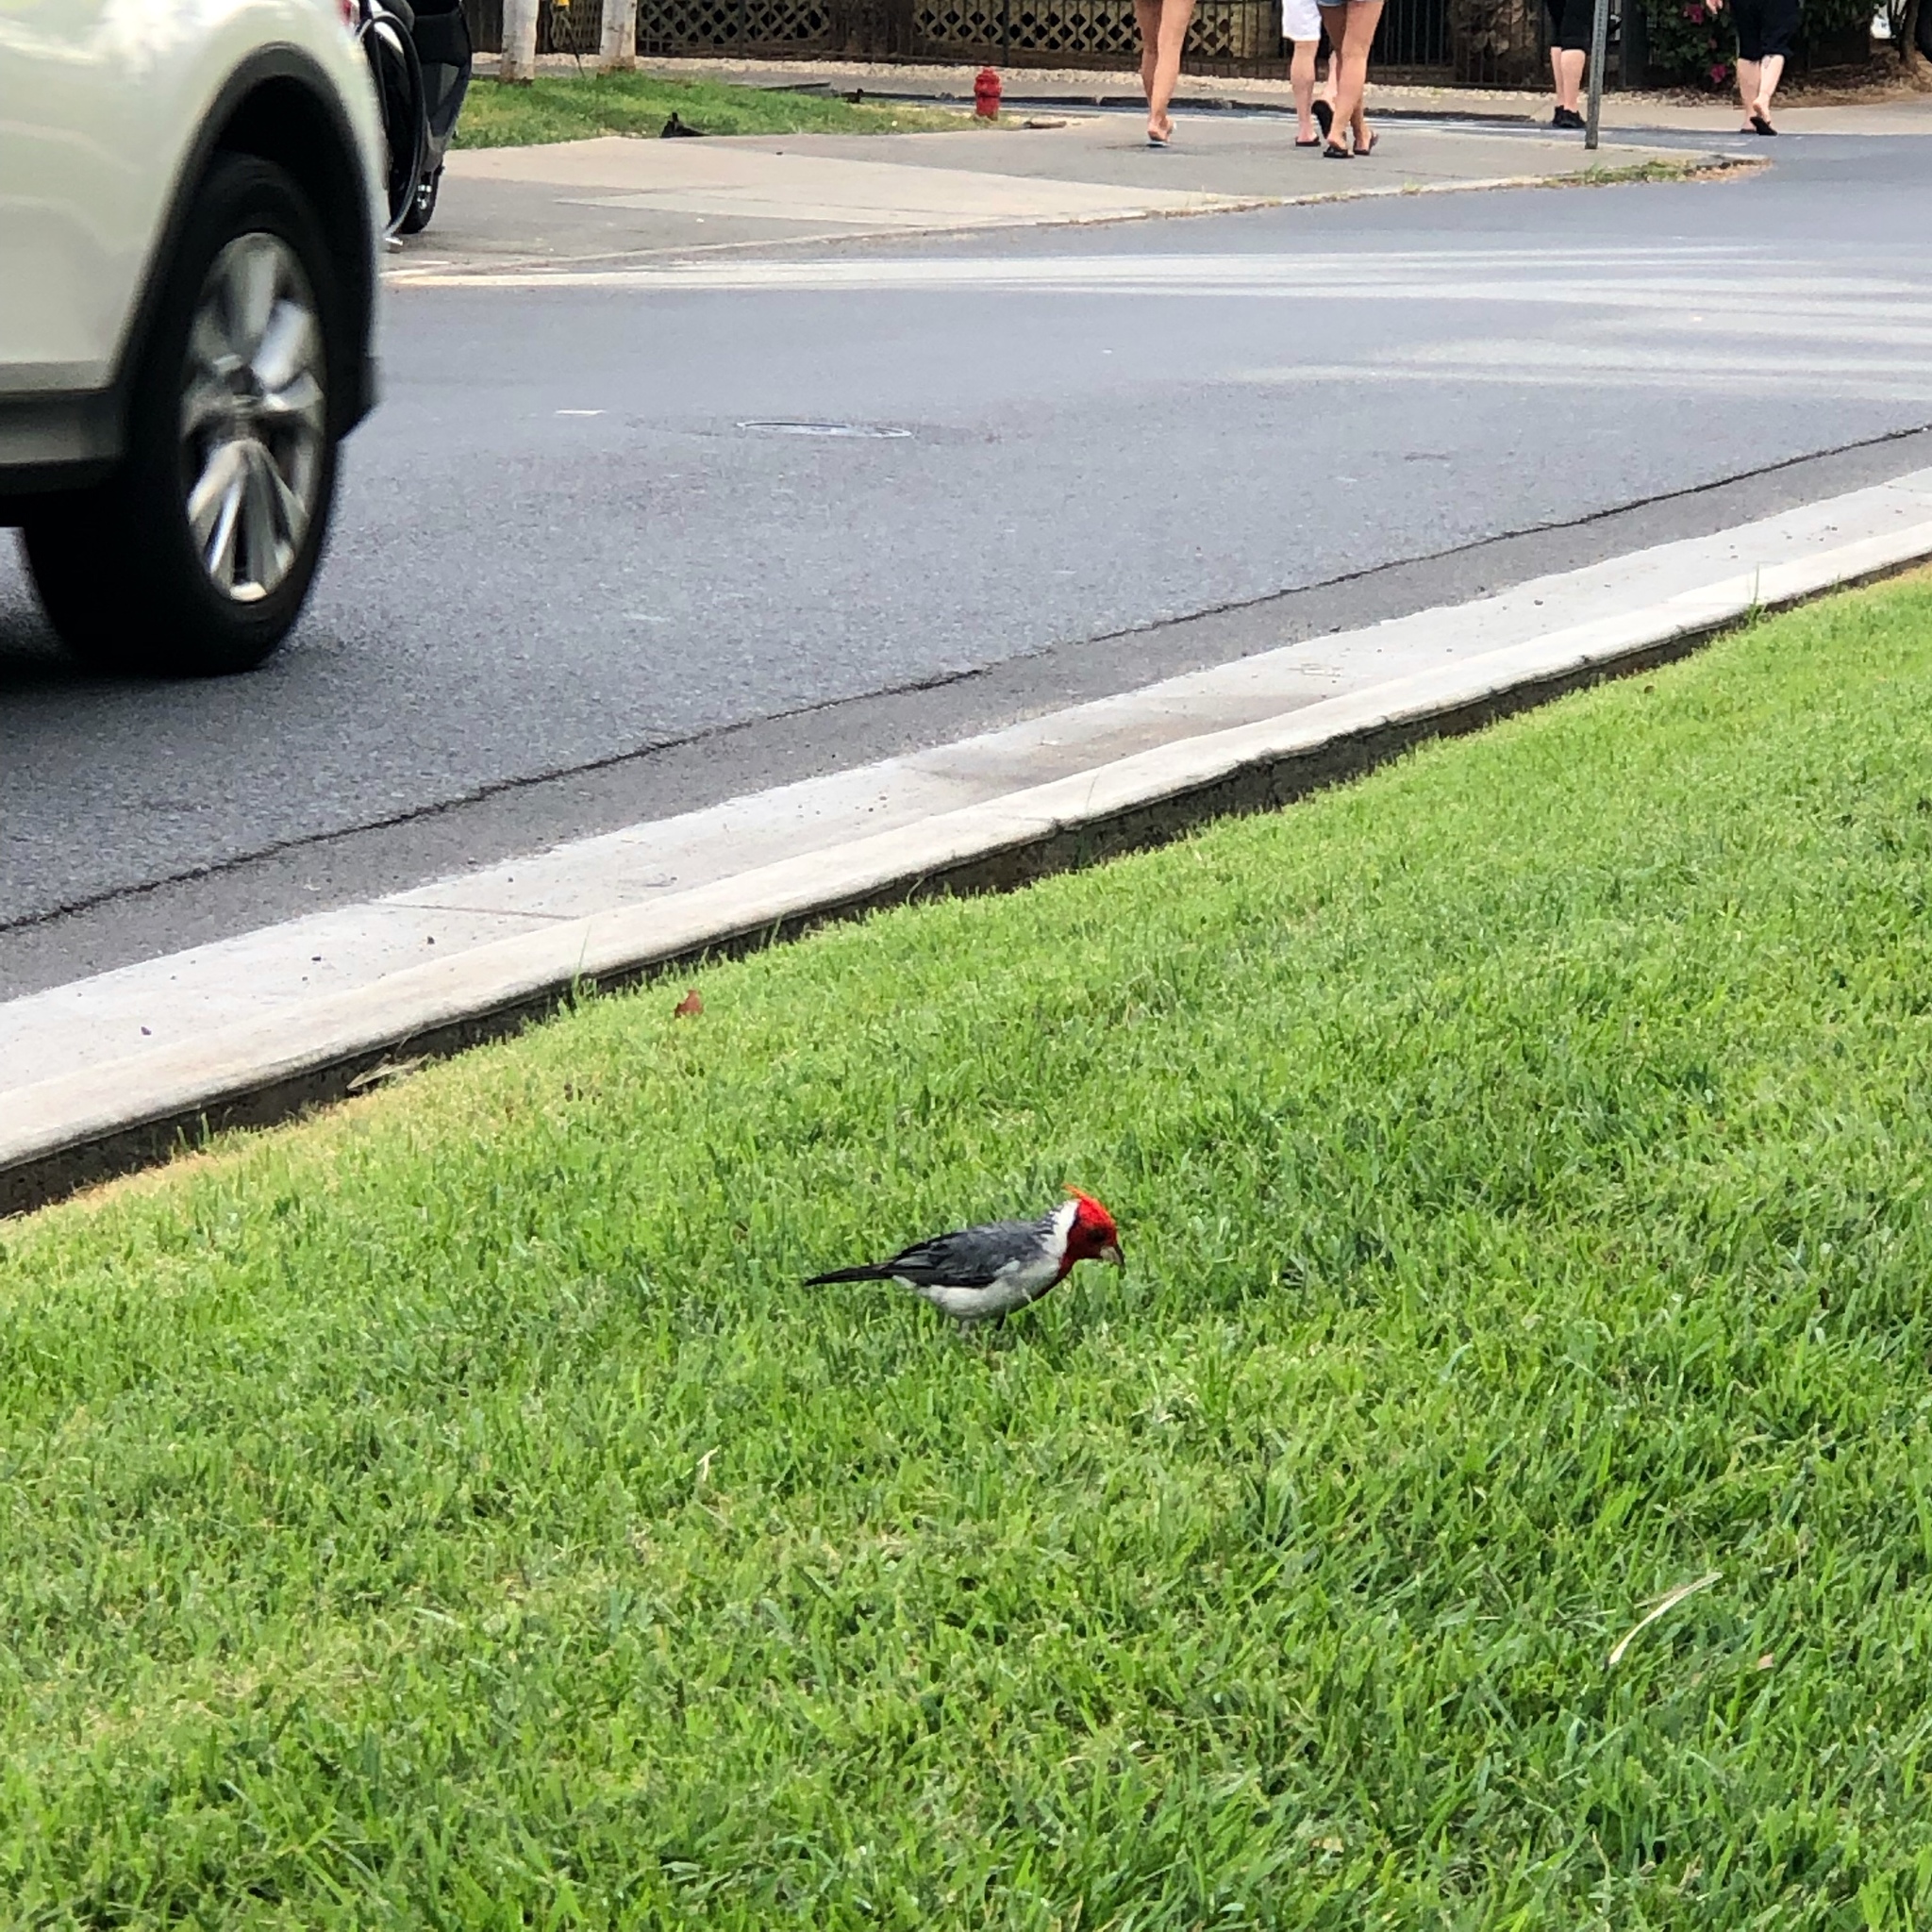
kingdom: Animalia
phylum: Chordata
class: Aves
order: Passeriformes
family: Thraupidae
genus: Paroaria
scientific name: Paroaria coronata
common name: Red-crested cardinal
